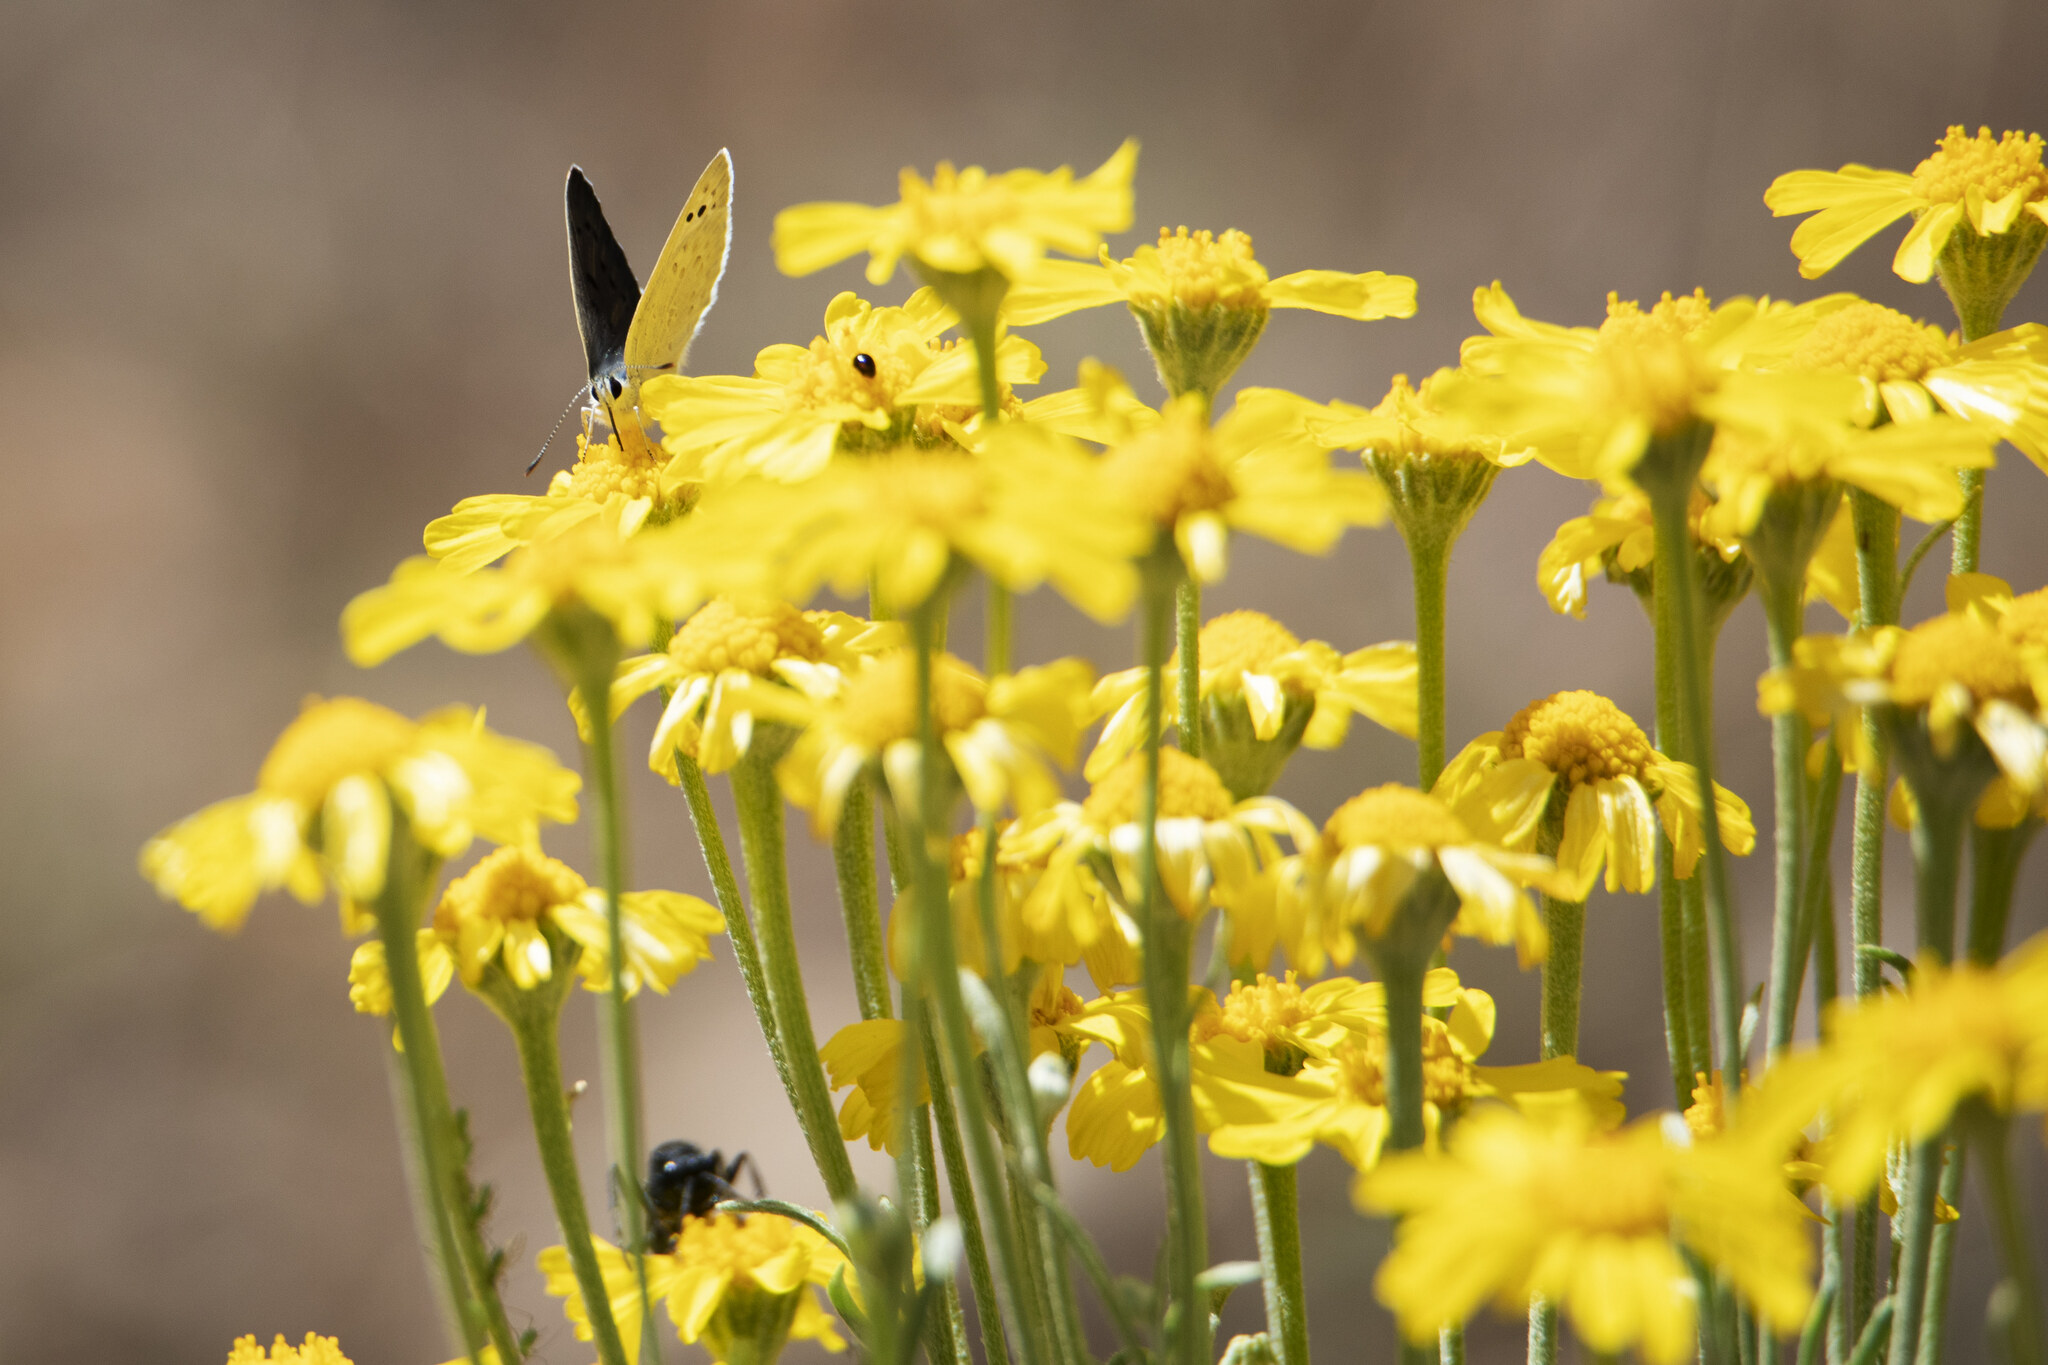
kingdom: Animalia
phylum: Arthropoda
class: Insecta
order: Lepidoptera
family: Lycaenidae
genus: Tharsalea
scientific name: Tharsalea heteronea
